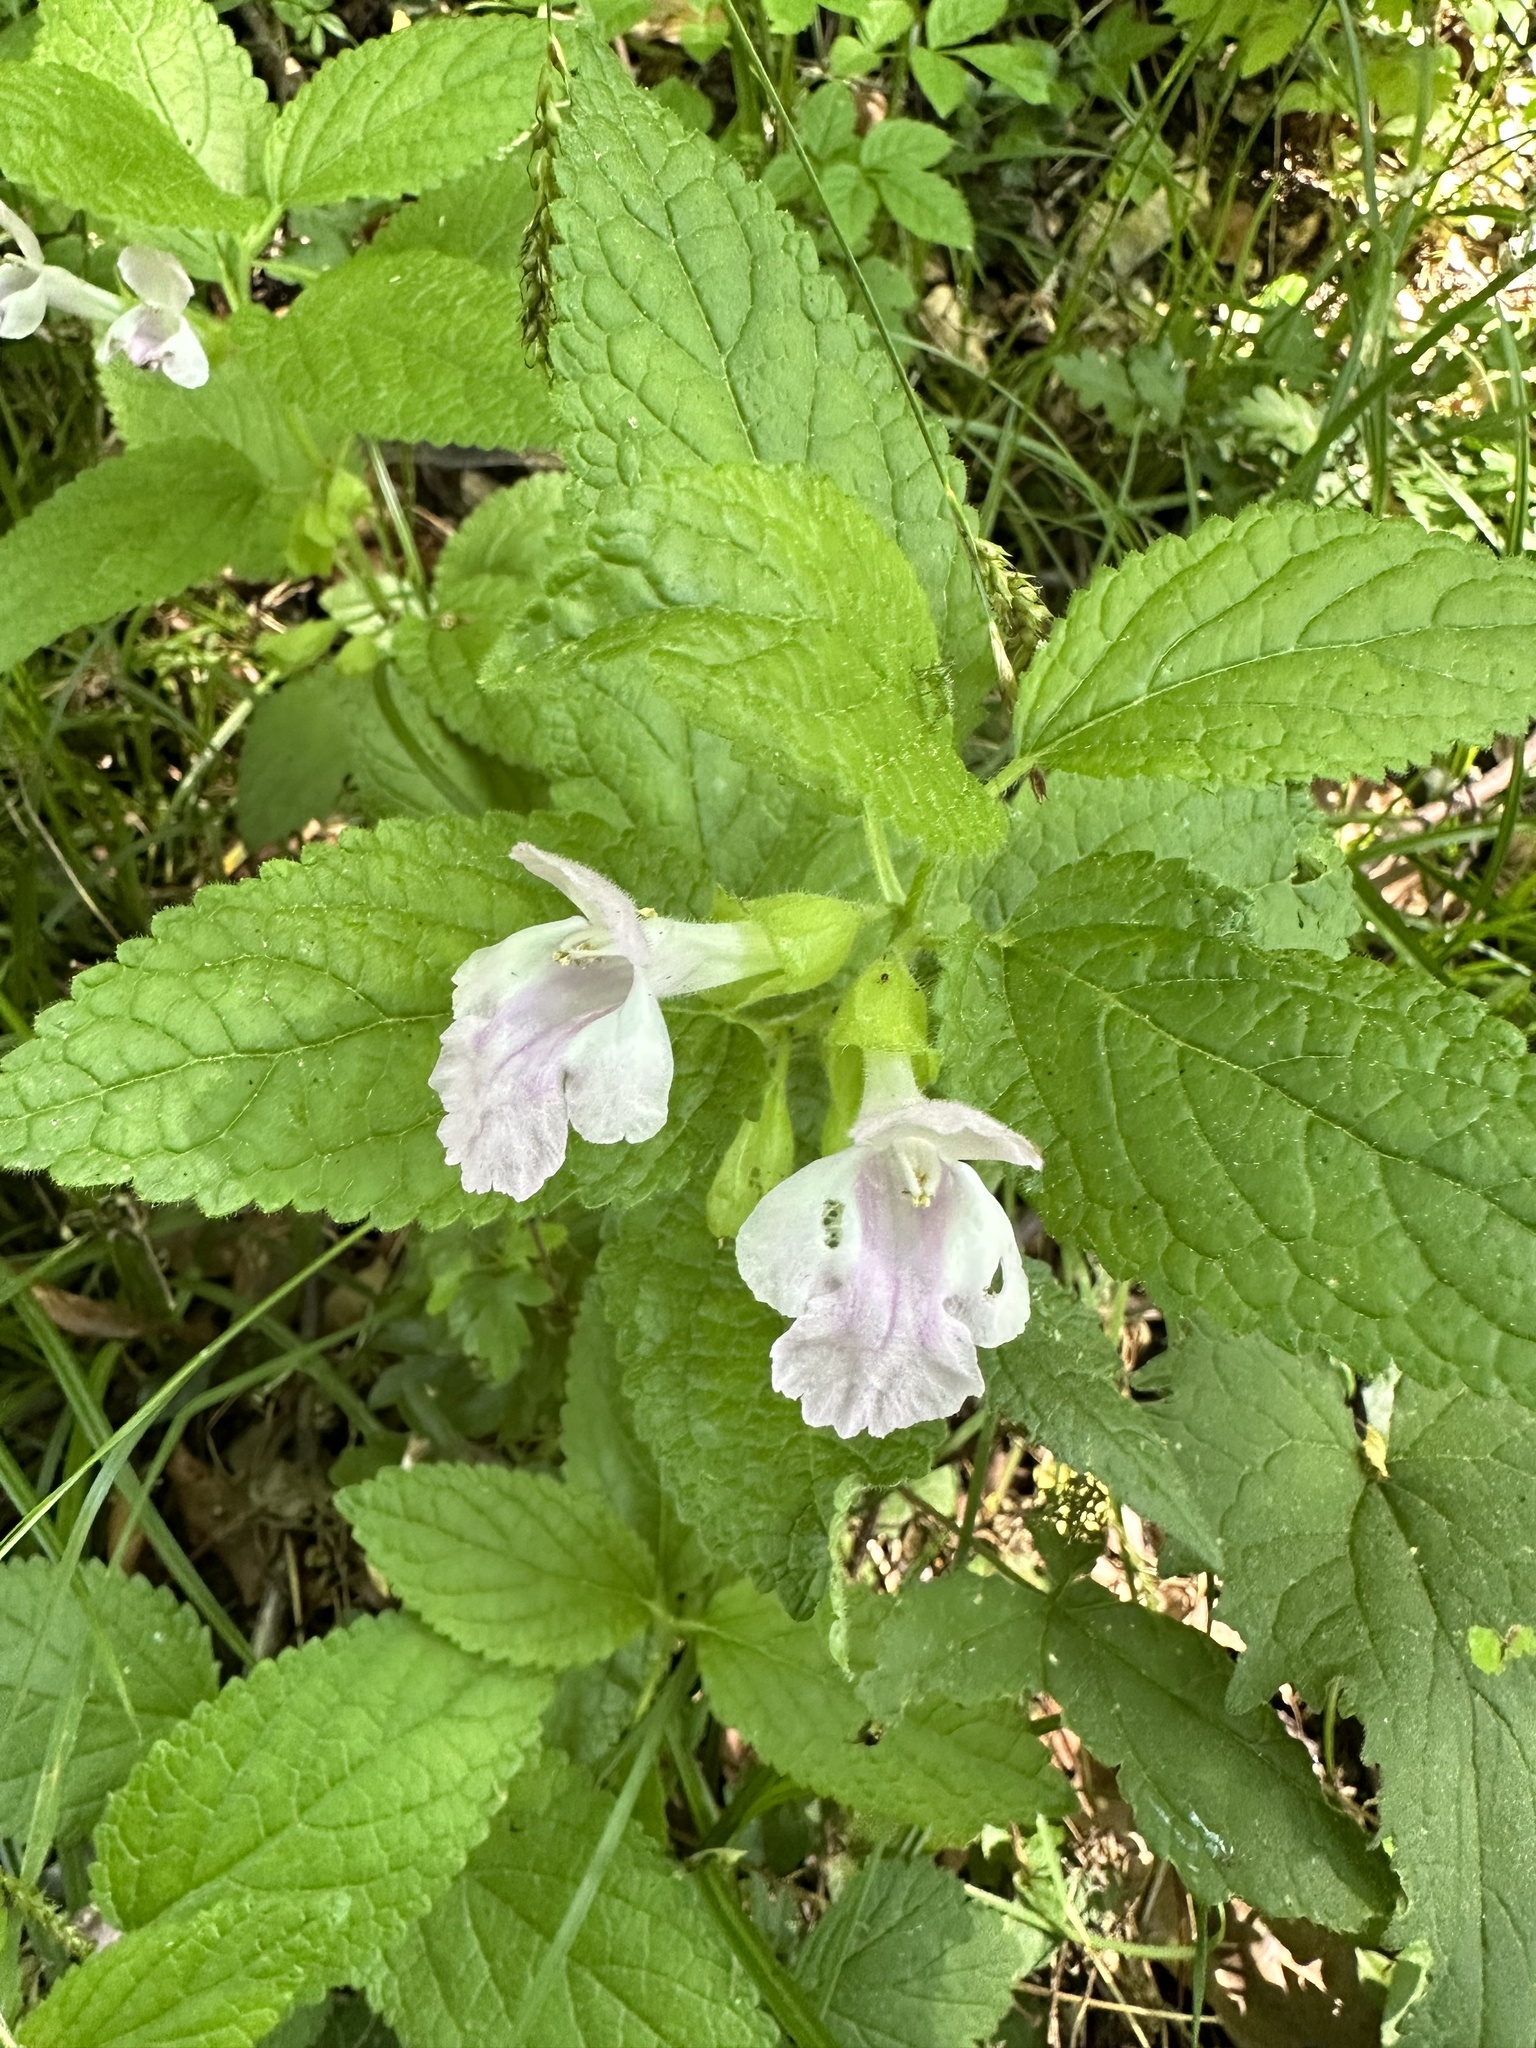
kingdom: Plantae
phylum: Tracheophyta
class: Magnoliopsida
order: Lamiales
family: Lamiaceae
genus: Melittis
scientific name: Melittis melissophyllum
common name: Bastard balm
